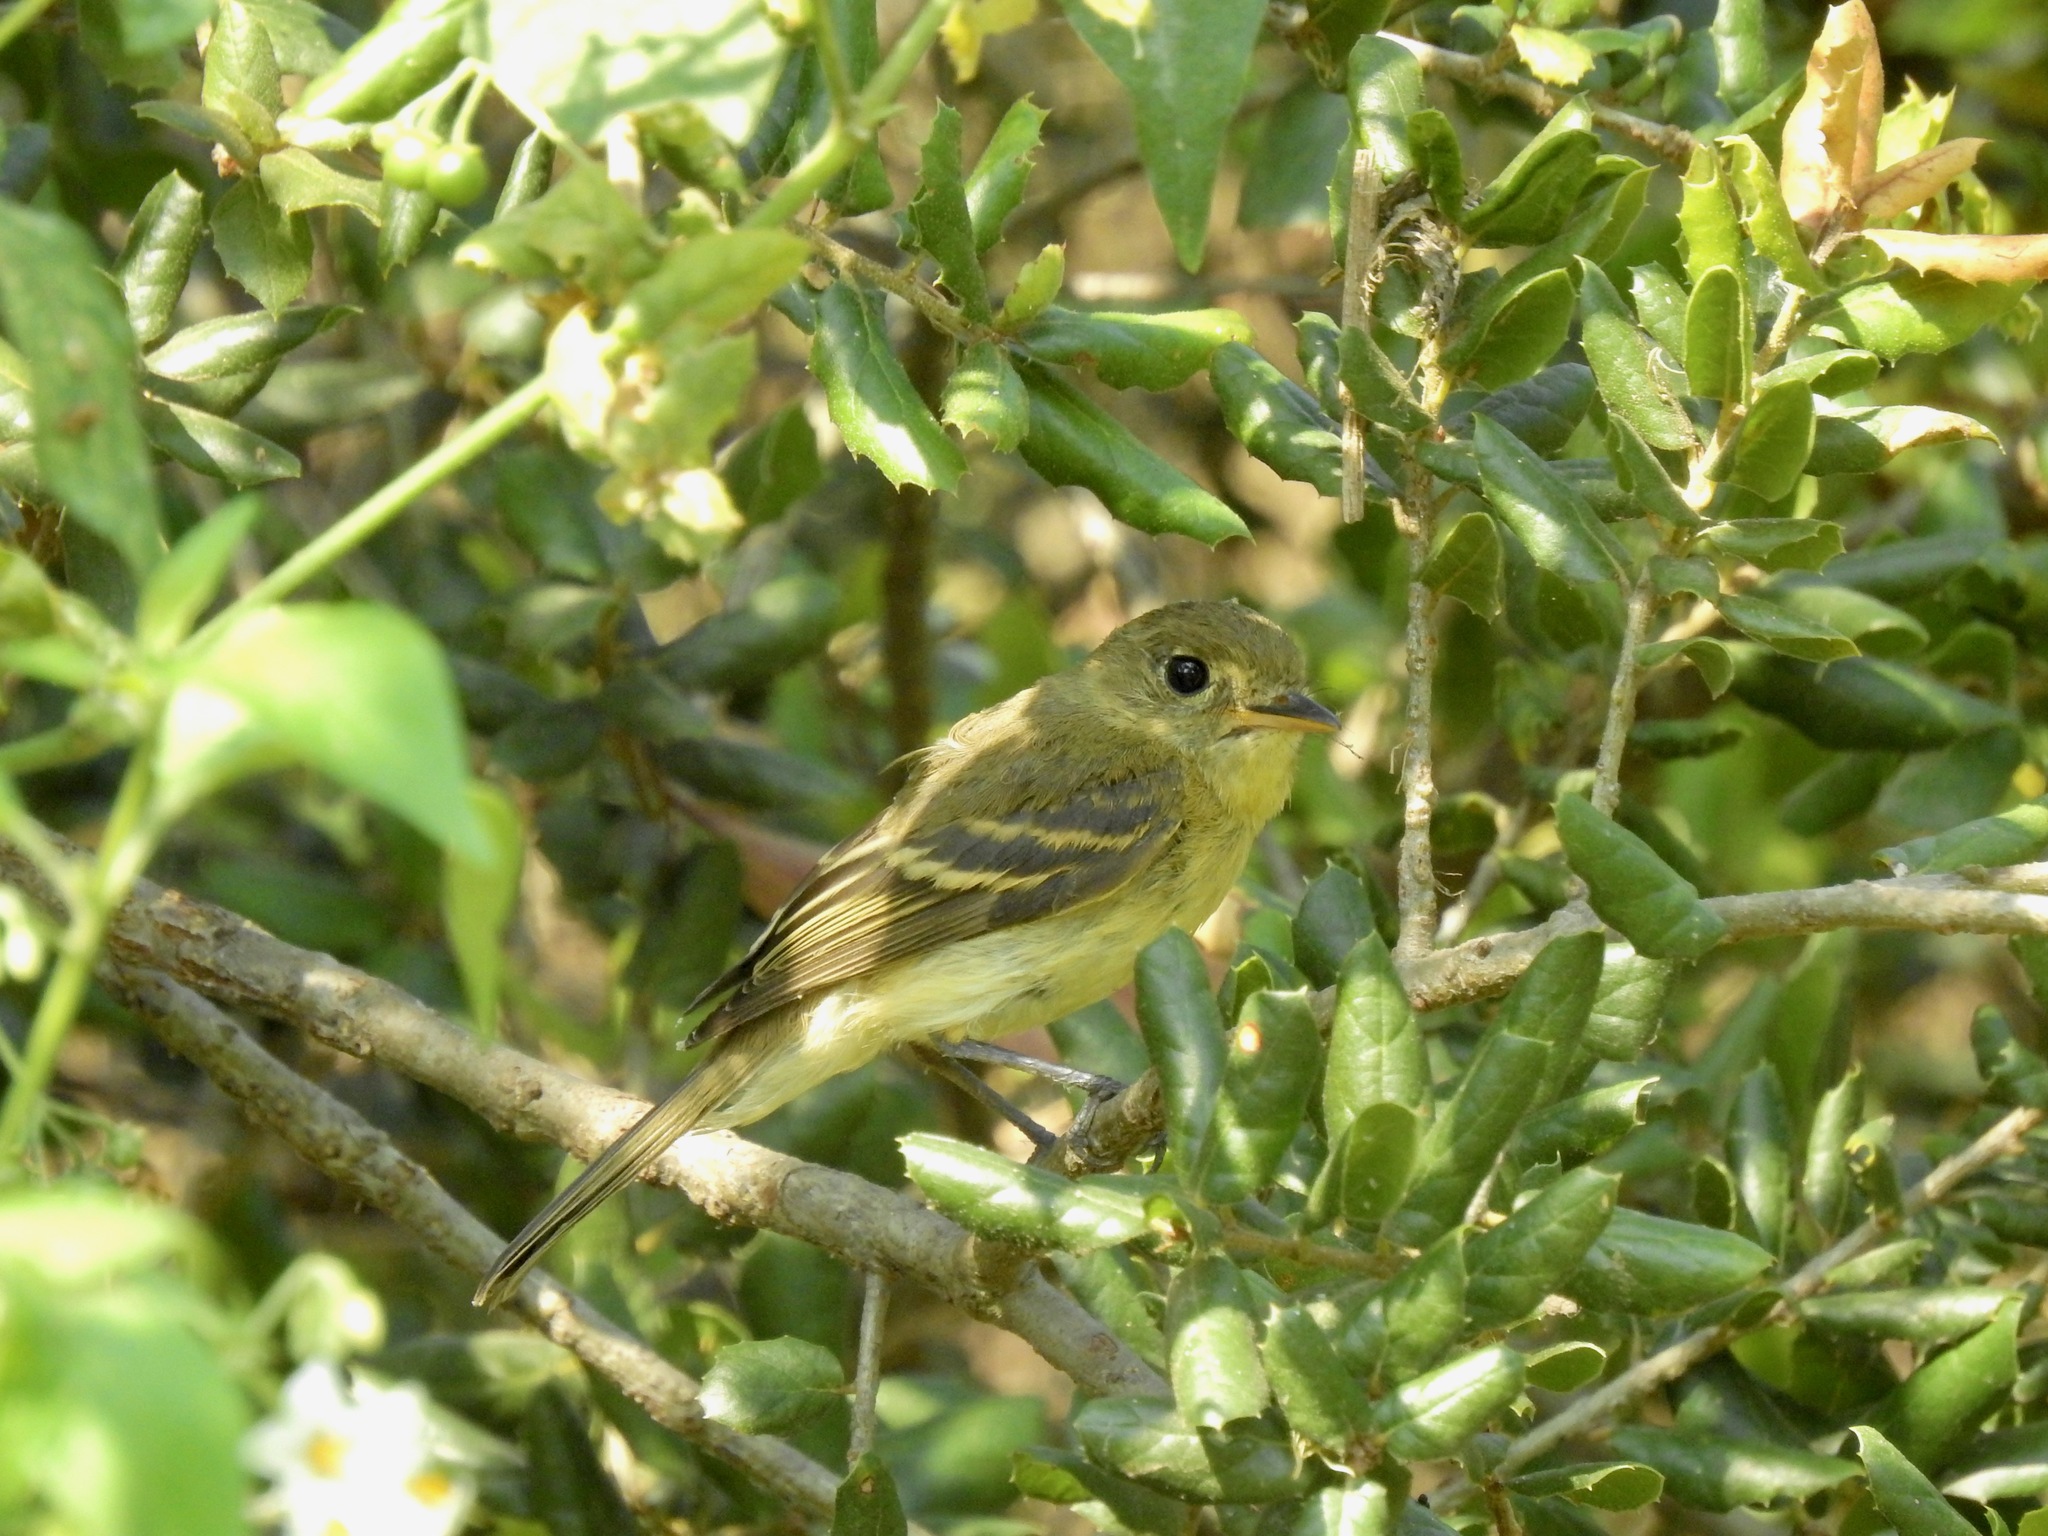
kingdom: Animalia
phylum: Chordata
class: Aves
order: Passeriformes
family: Tyrannidae
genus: Empidonax
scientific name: Empidonax difficilis
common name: Pacific-slope flycatcher
